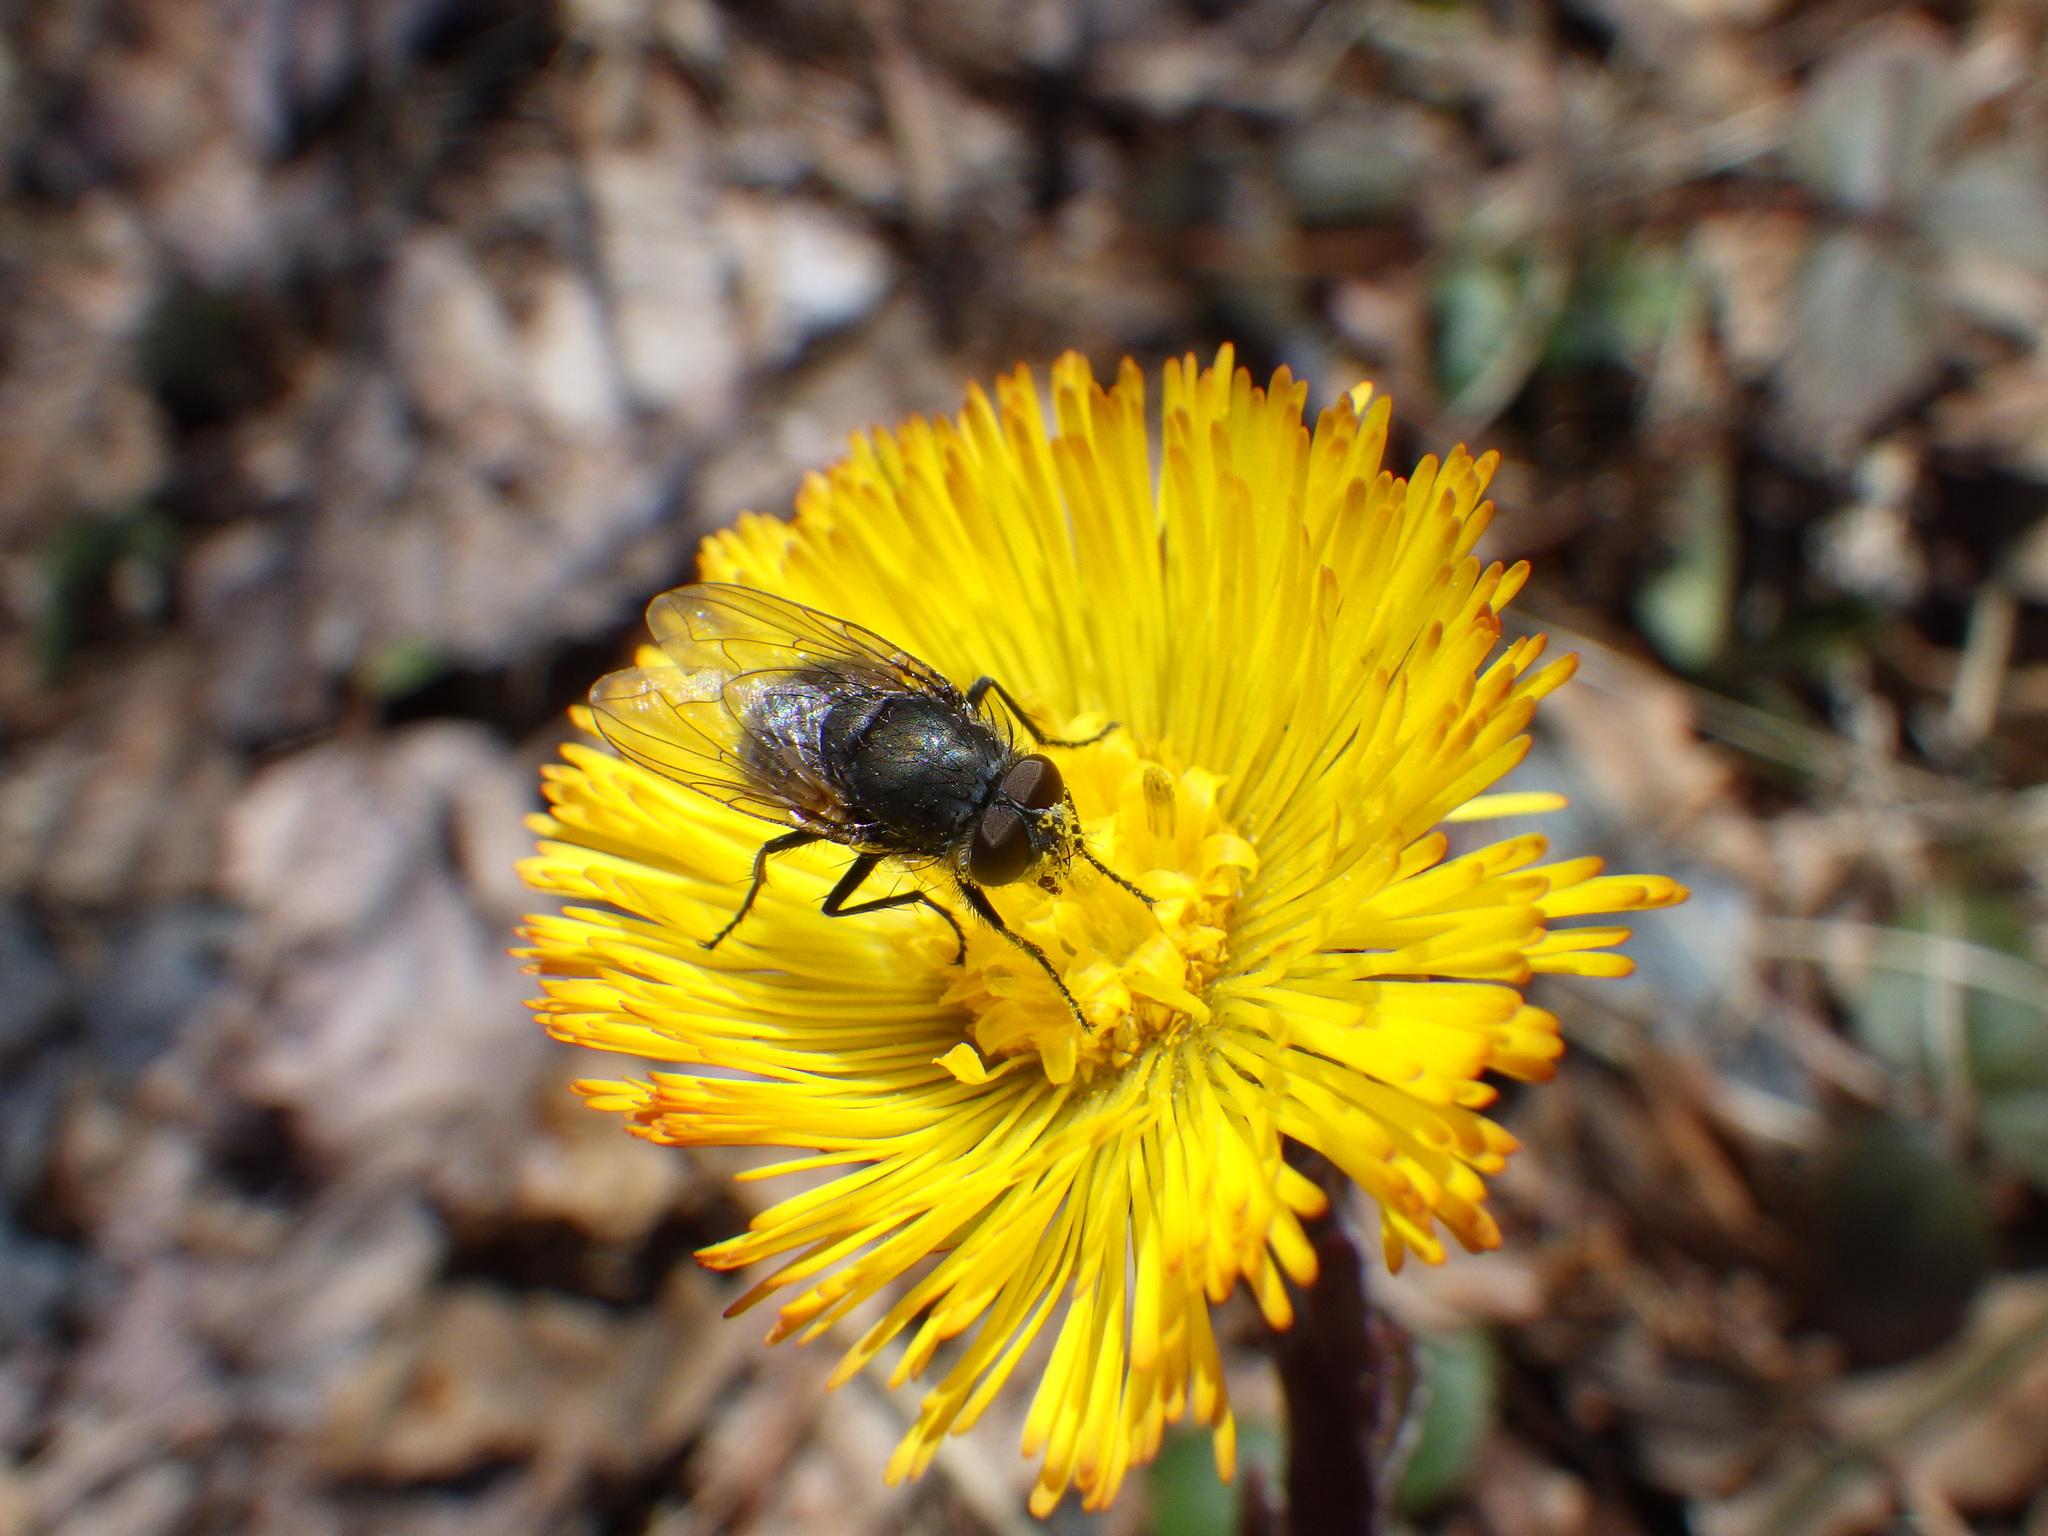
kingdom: Animalia
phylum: Arthropoda
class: Insecta
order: Diptera
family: Polleniidae
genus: Pollenia
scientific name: Pollenia
